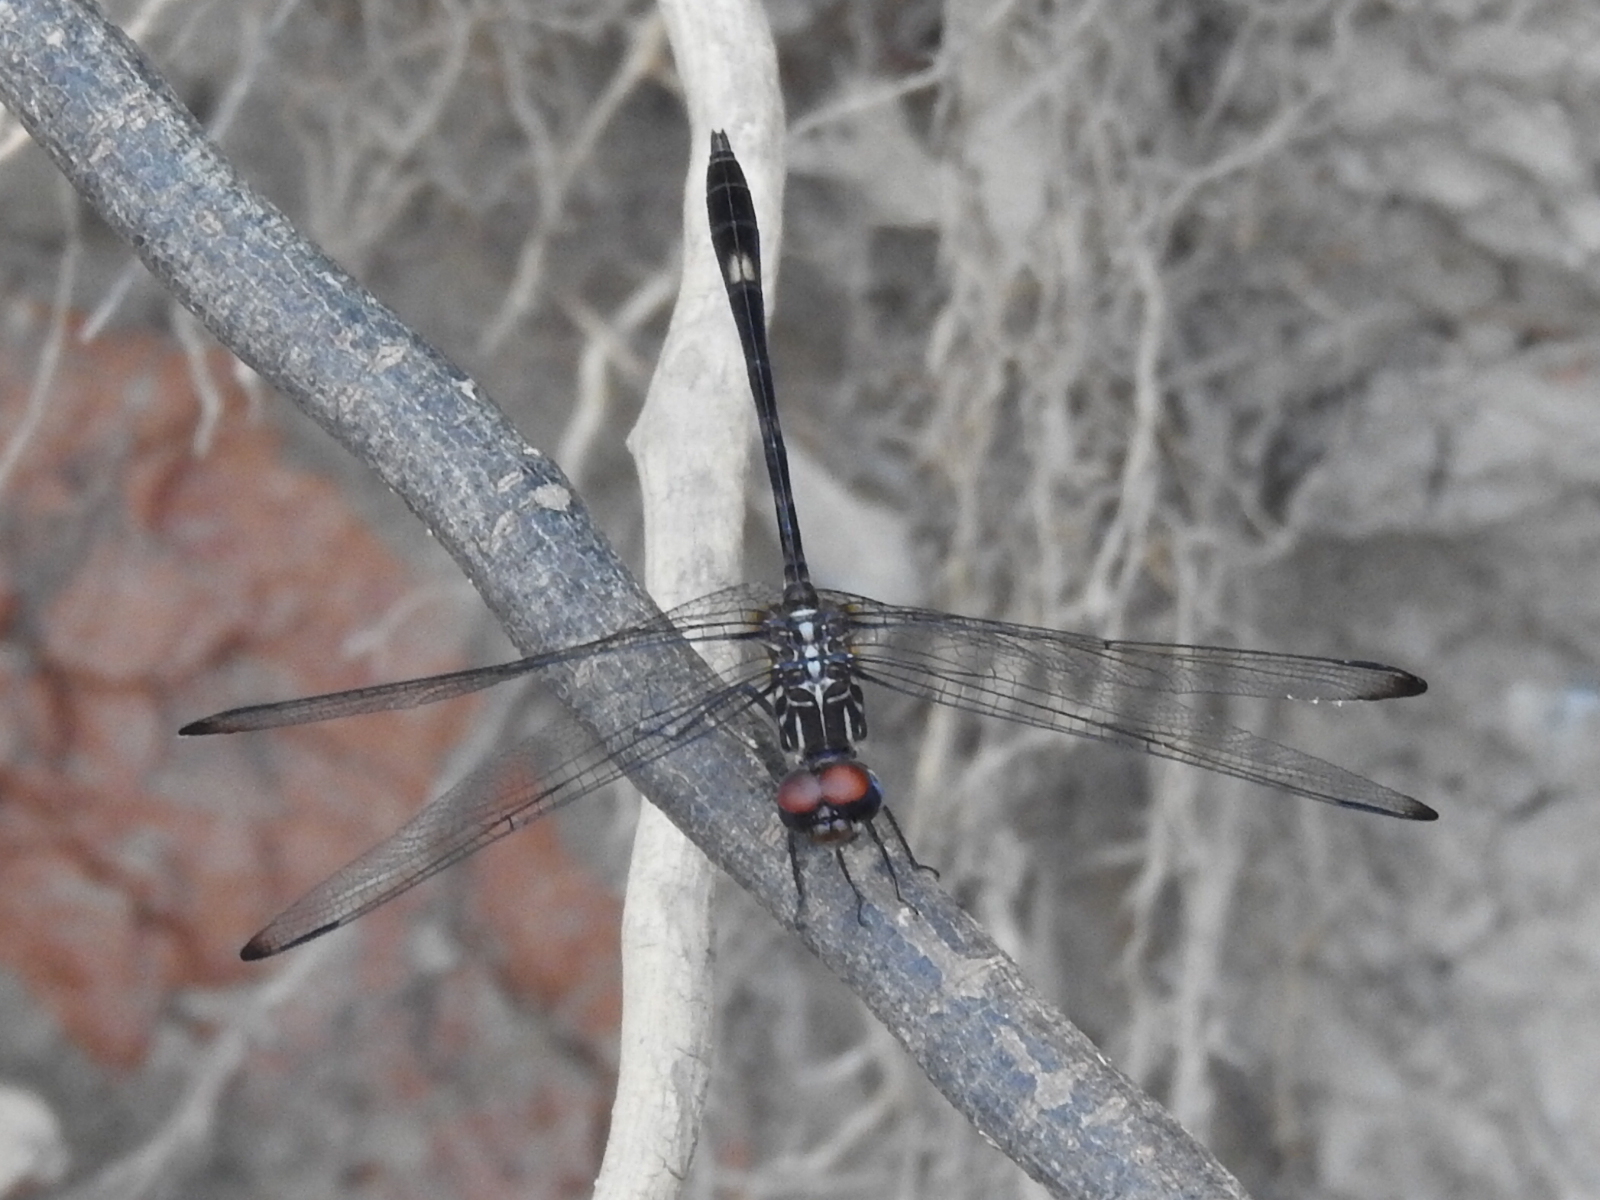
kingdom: Animalia
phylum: Arthropoda
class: Insecta
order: Odonata
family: Libellulidae
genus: Dythemis
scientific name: Dythemis velox
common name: Swift setwing
